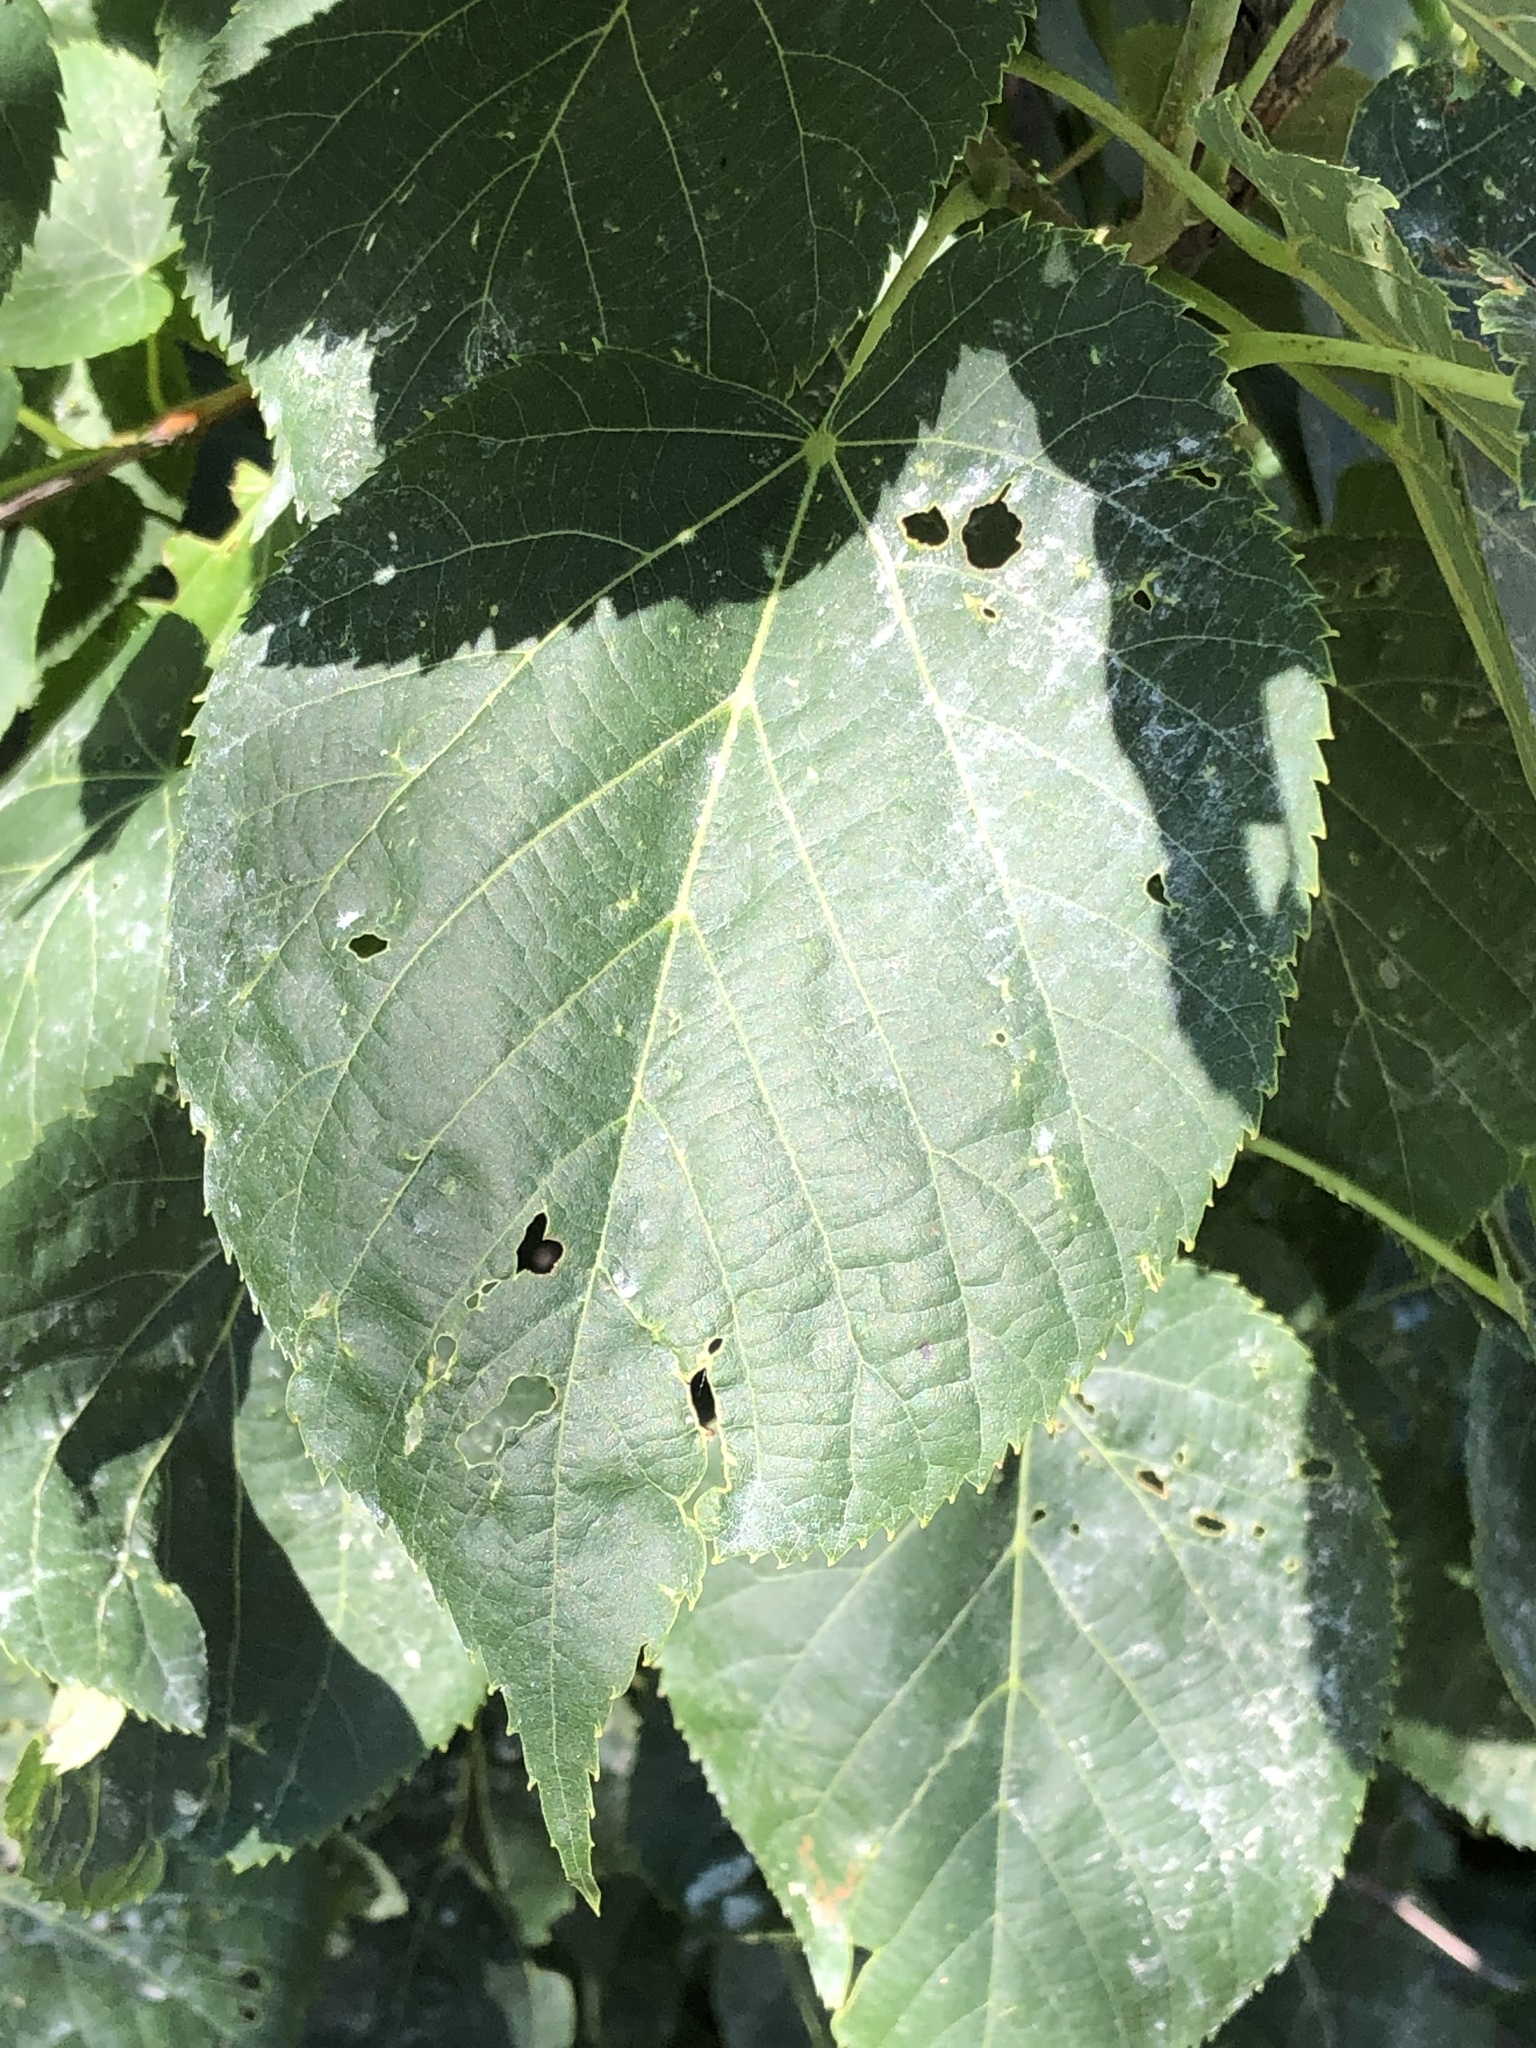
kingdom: Plantae
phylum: Tracheophyta
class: Magnoliopsida
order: Malvales
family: Malvaceae
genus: Tilia
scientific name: Tilia americana
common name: Basswood
